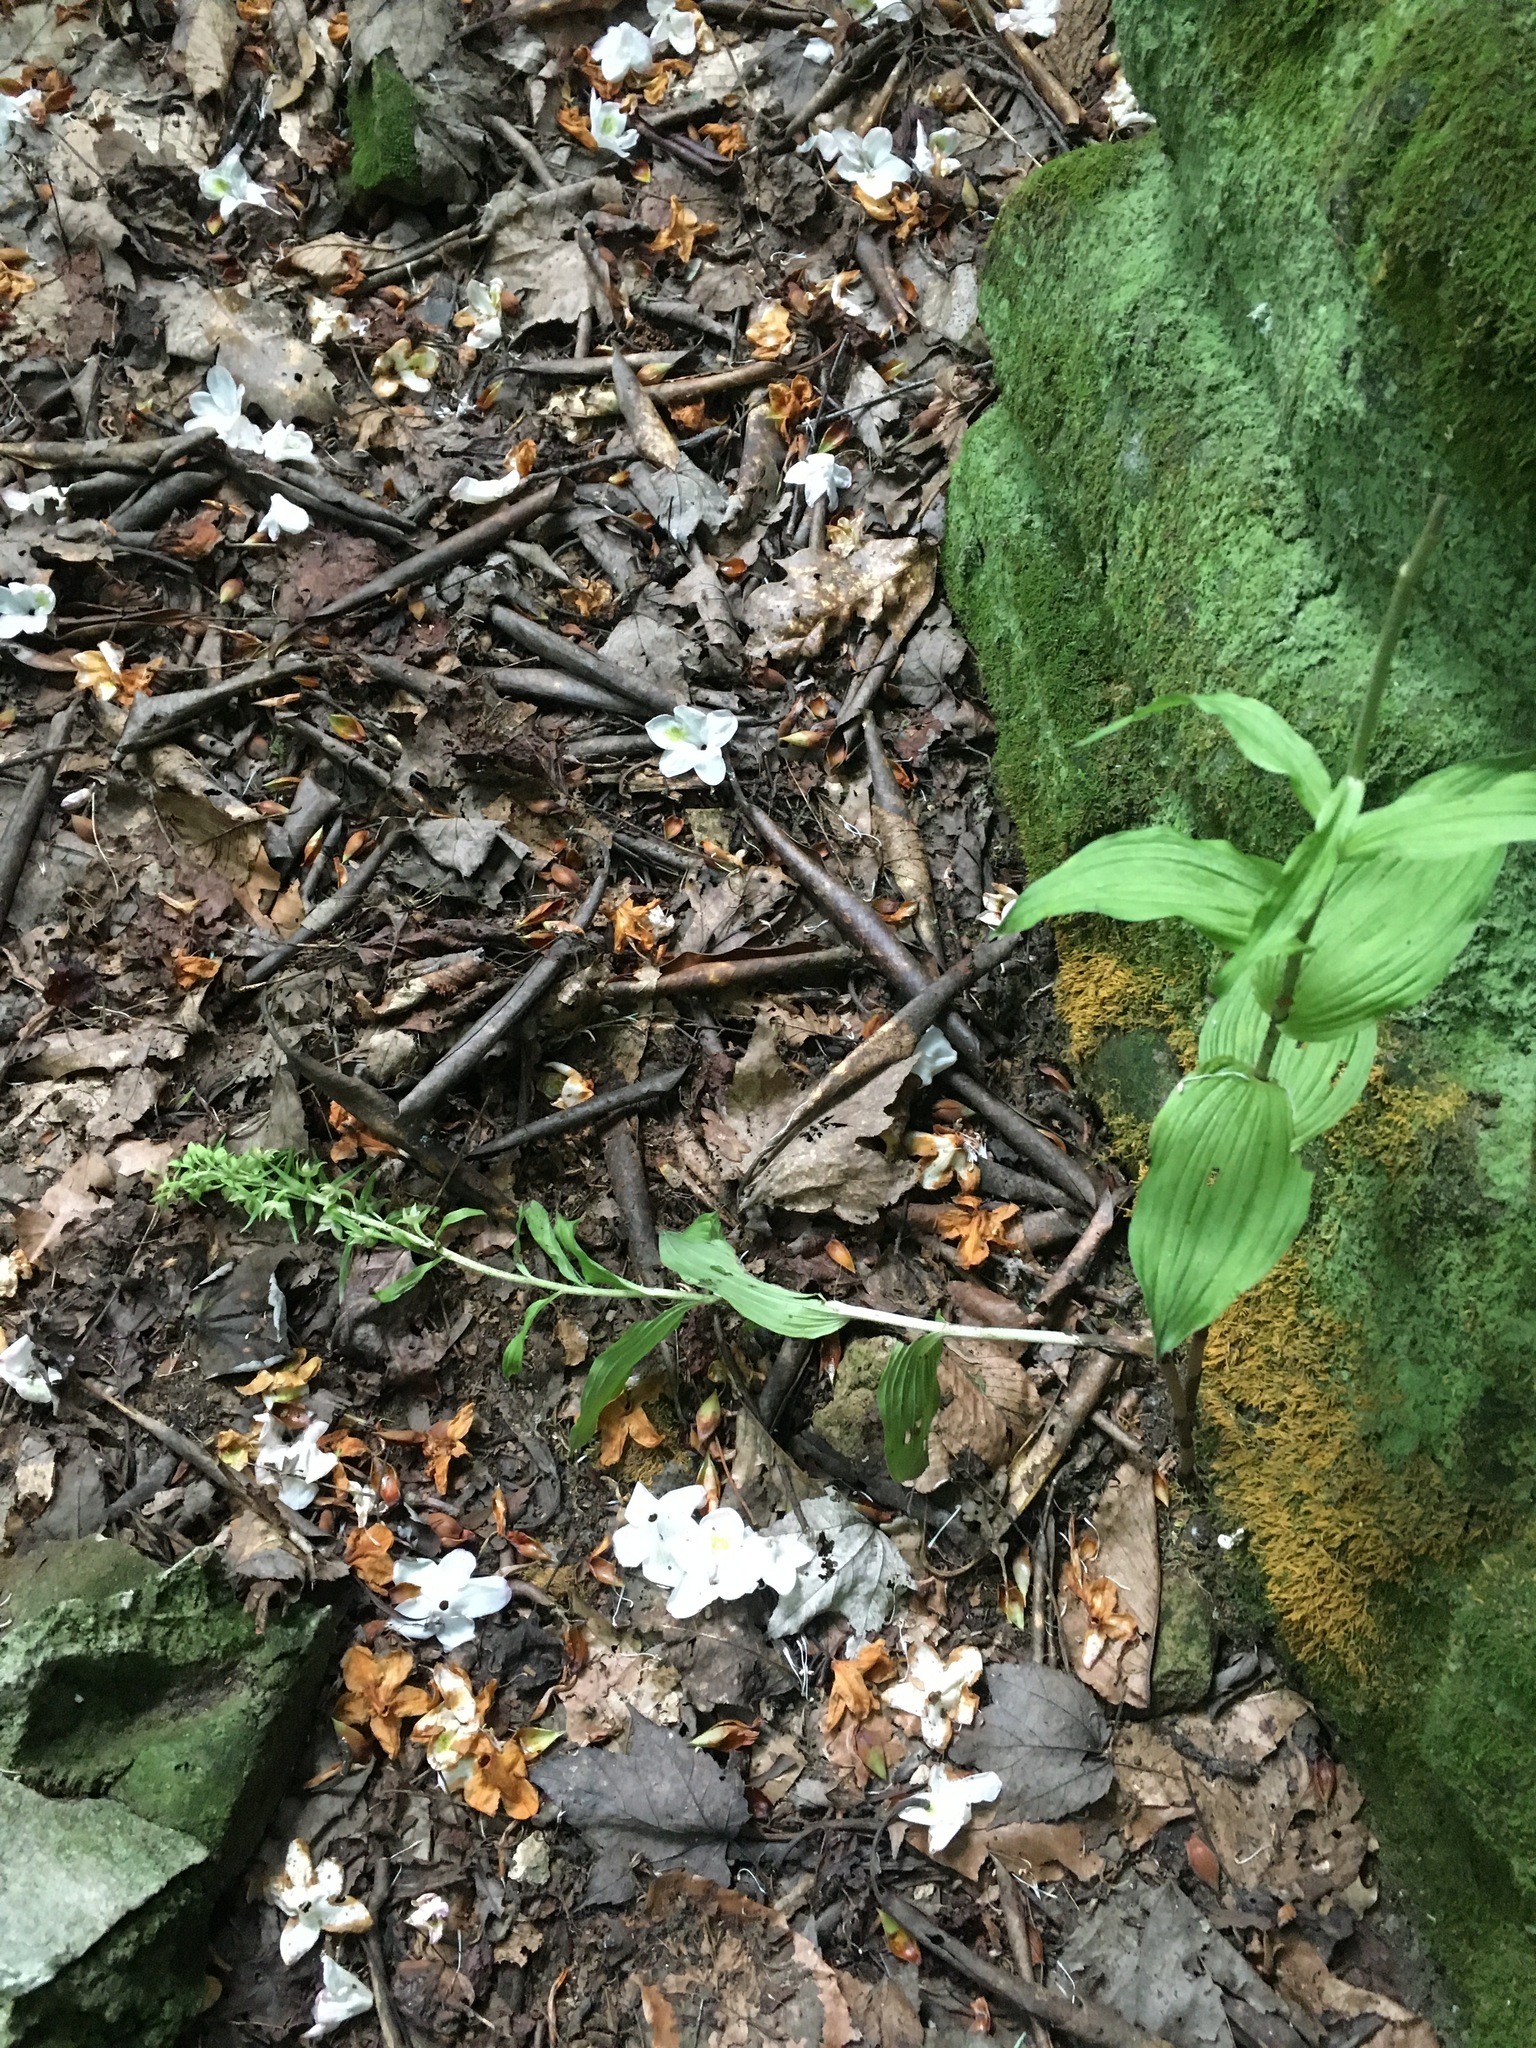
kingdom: Plantae
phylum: Tracheophyta
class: Liliopsida
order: Asparagales
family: Orchidaceae
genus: Epipactis
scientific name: Epipactis helleborine
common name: Broad-leaved helleborine
